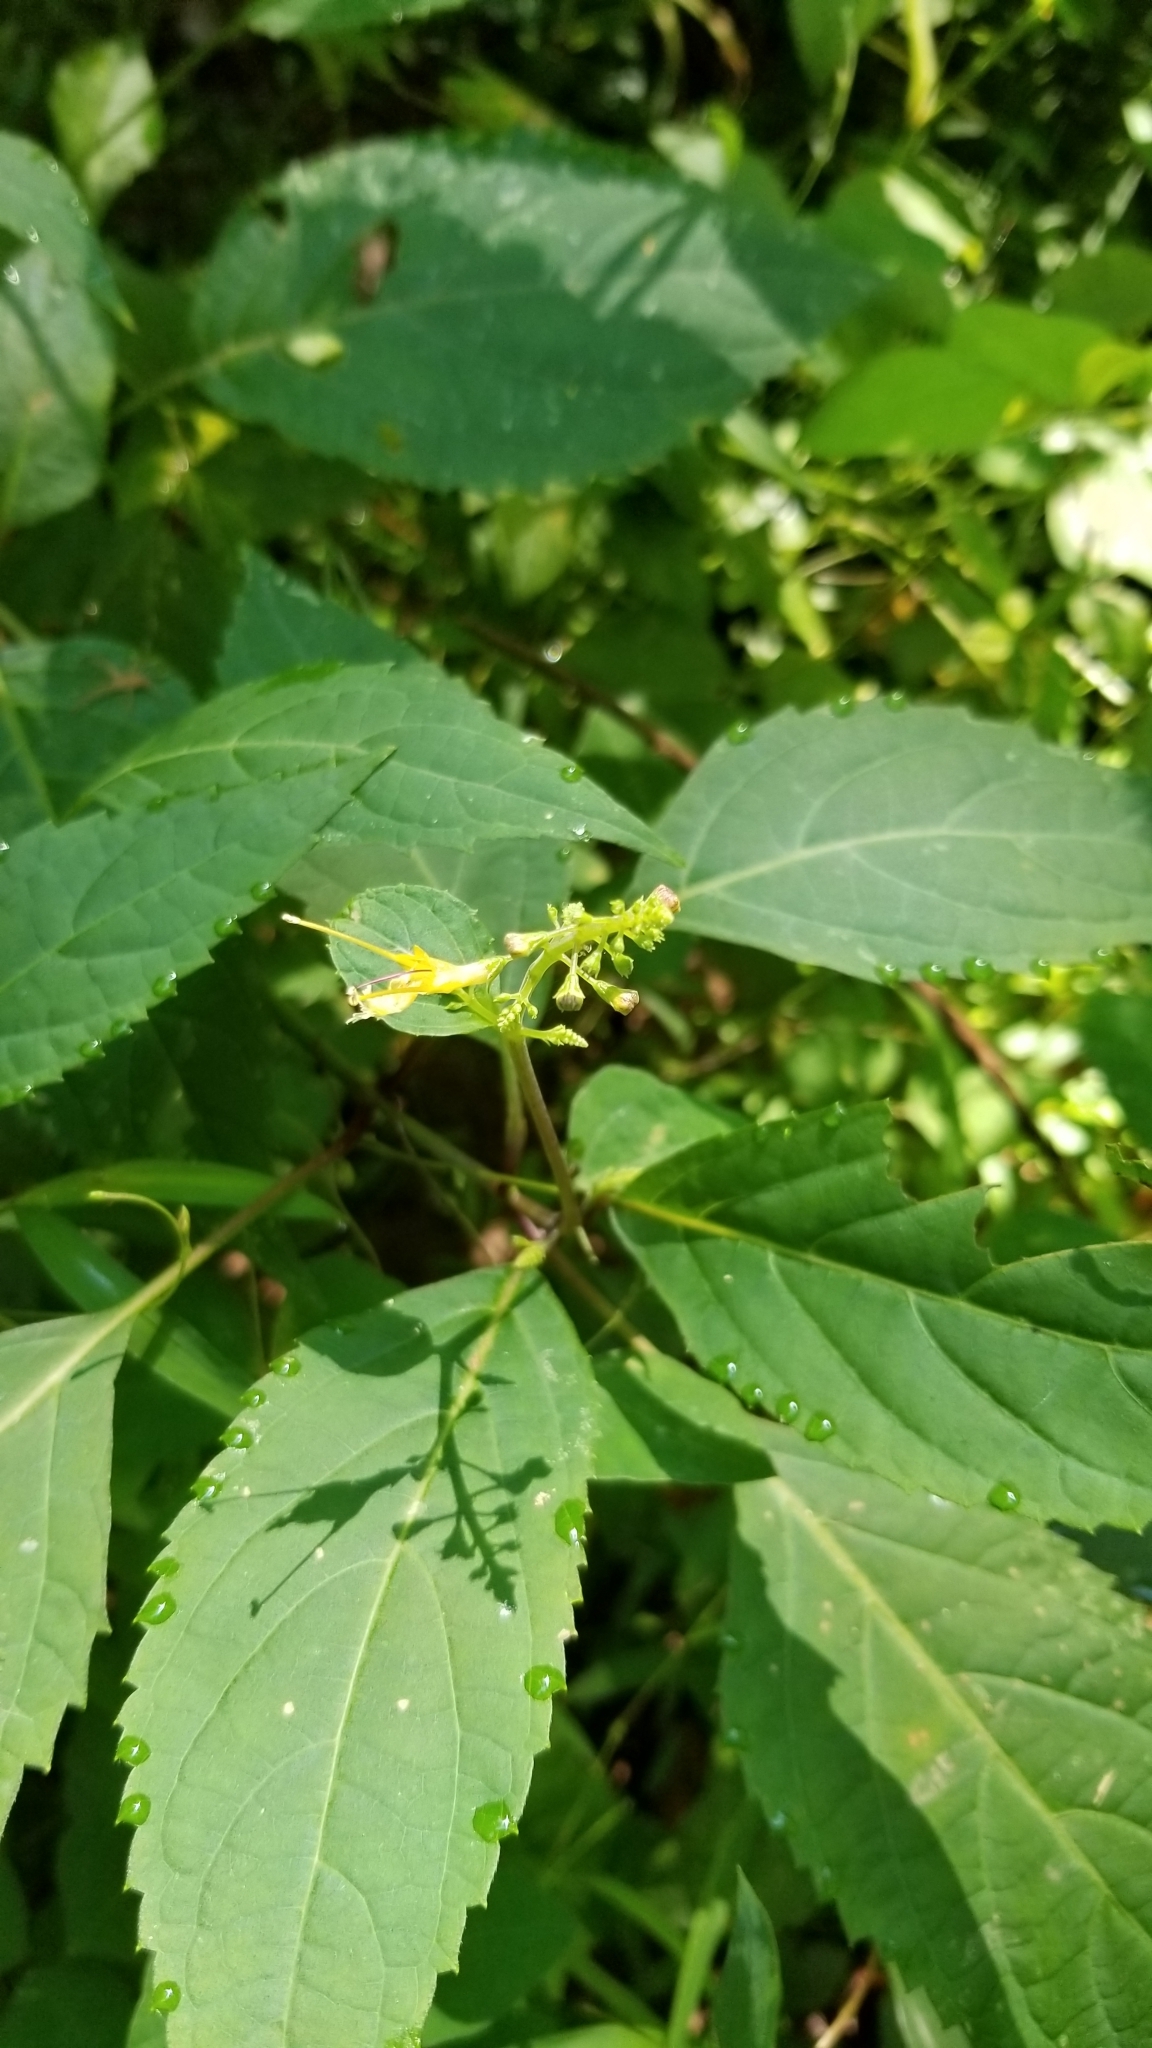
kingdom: Plantae
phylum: Tracheophyta
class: Magnoliopsida
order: Lamiales
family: Lamiaceae
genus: Collinsonia
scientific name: Collinsonia canadensis
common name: Northern horsebalm
